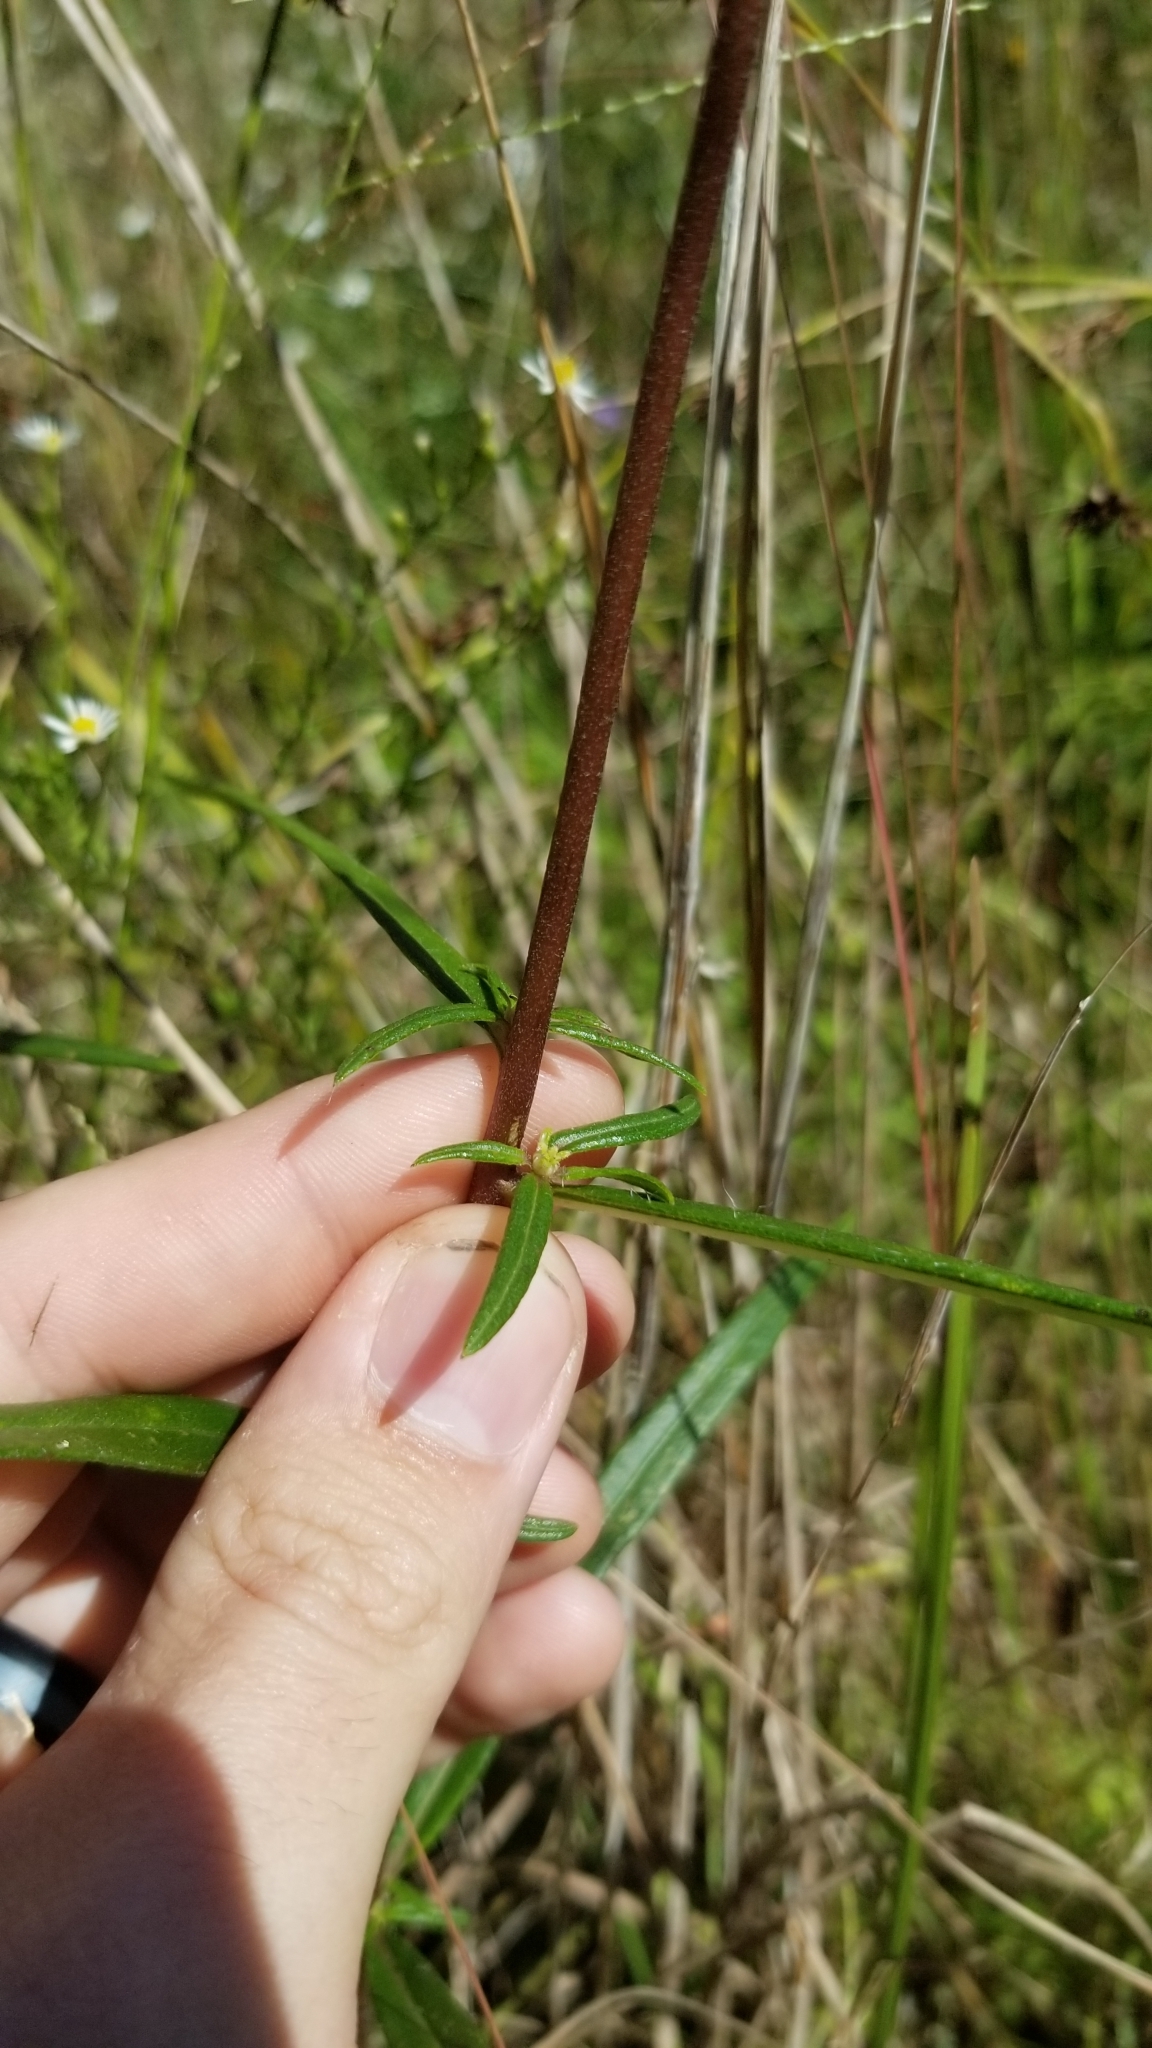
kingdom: Plantae
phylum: Tracheophyta
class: Magnoliopsida
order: Asterales
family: Asteraceae
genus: Helianthus
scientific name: Helianthus angustifolius
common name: Swamp sunflower
